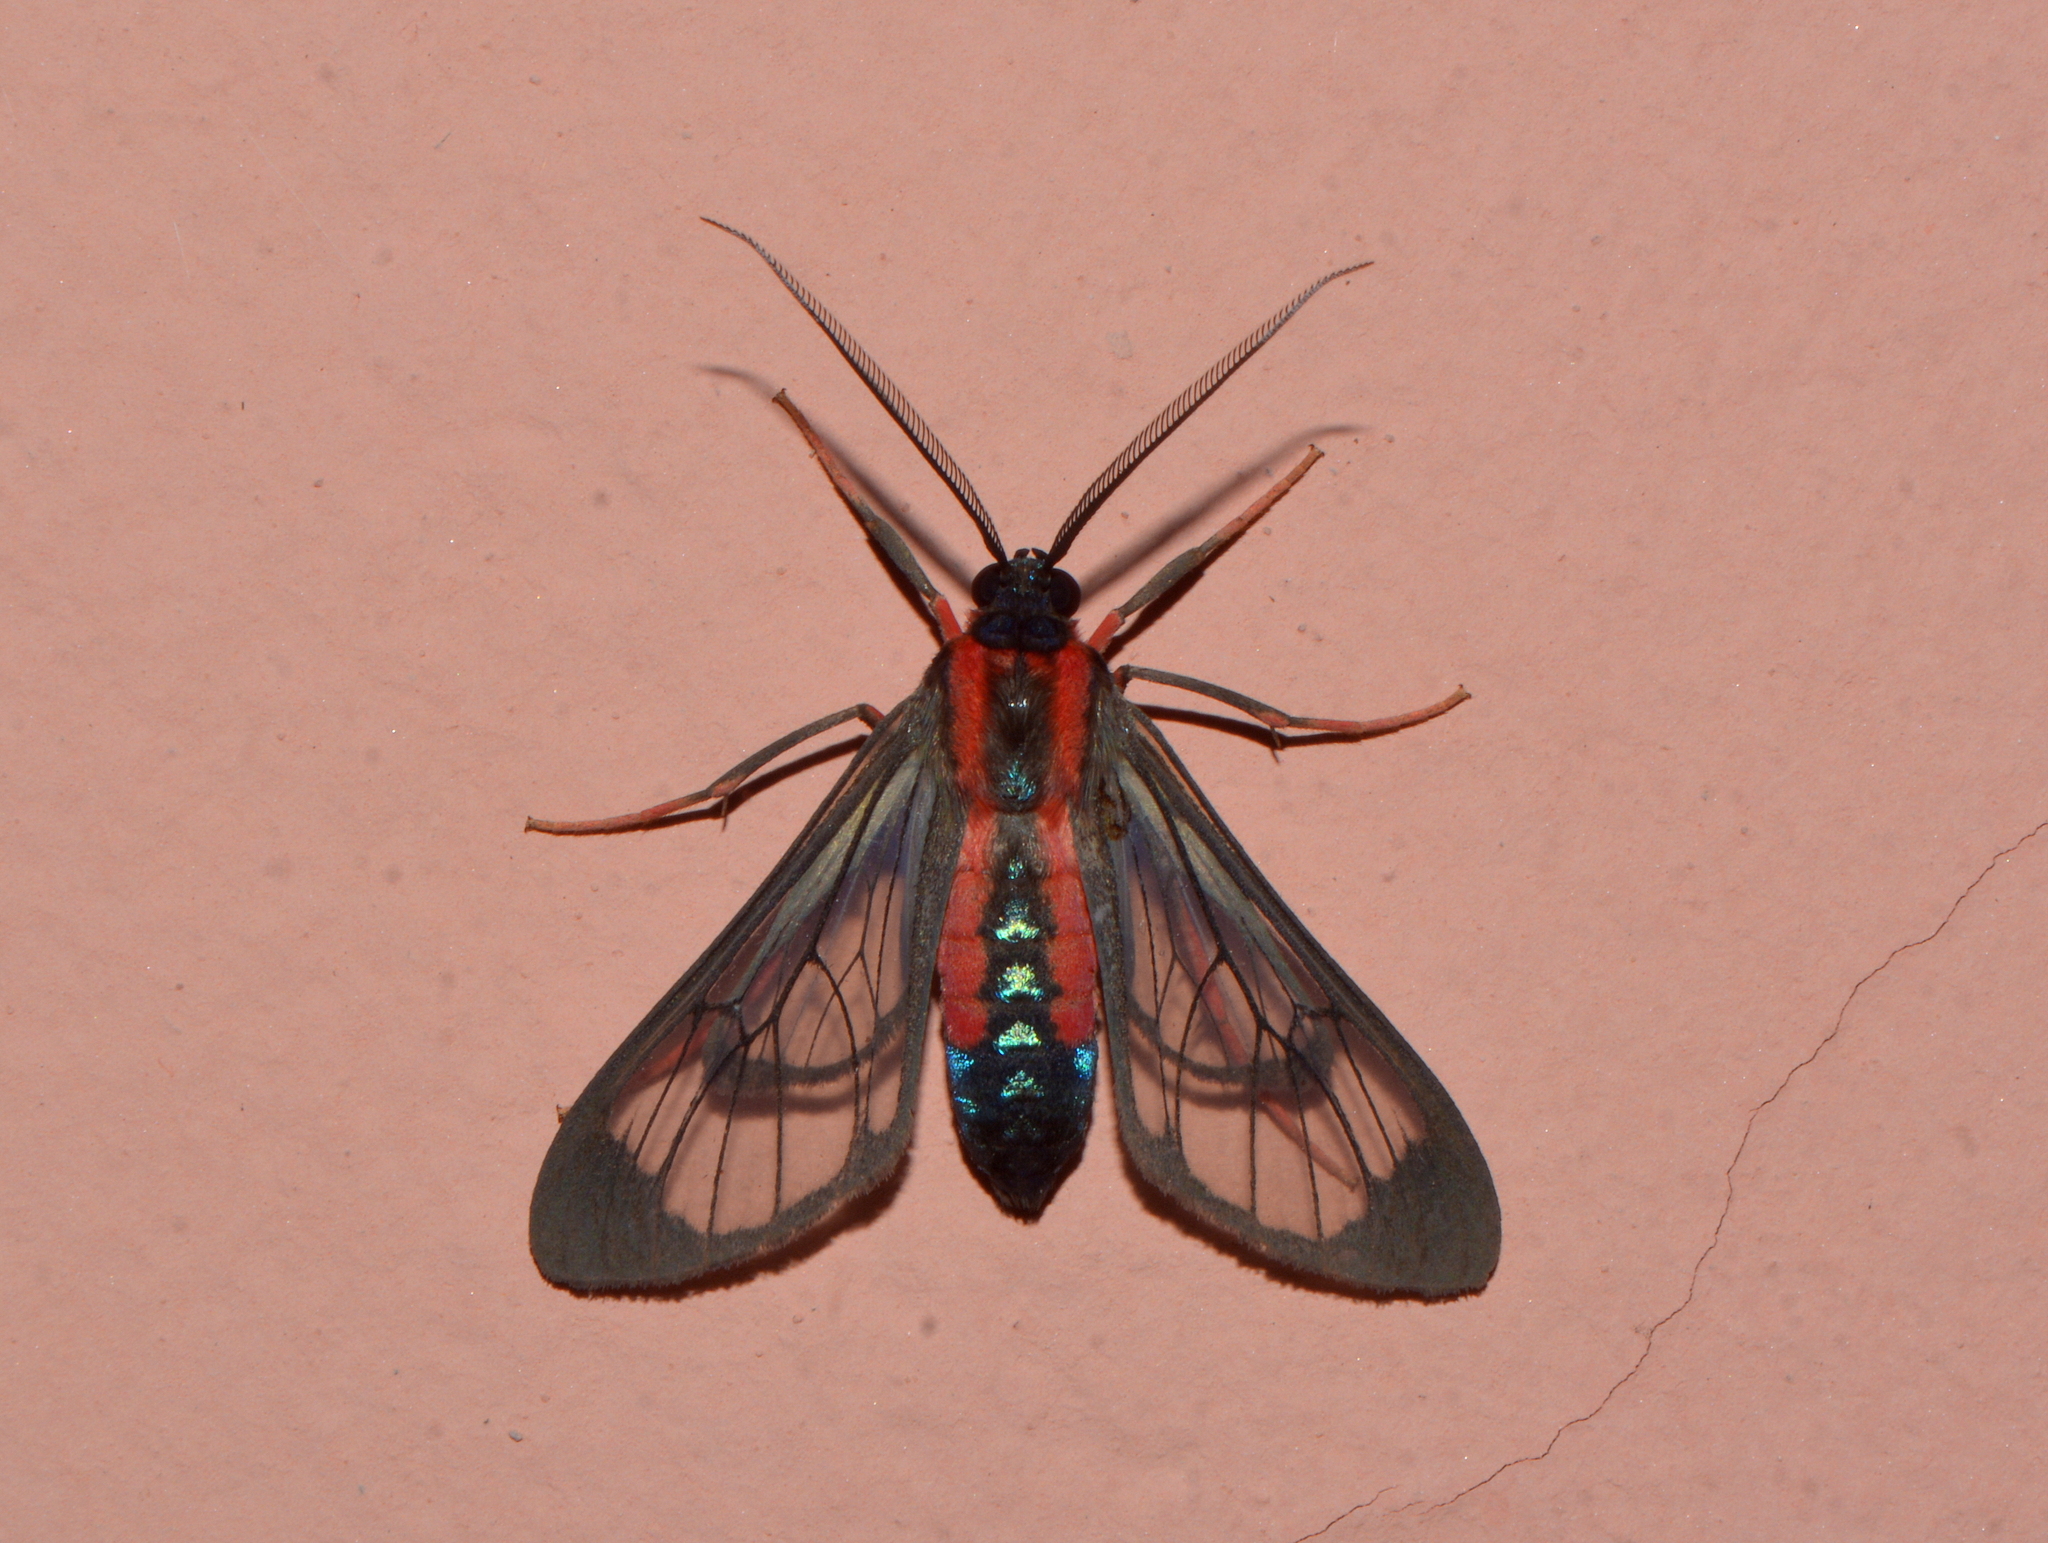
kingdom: Animalia
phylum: Arthropoda
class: Insecta
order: Lepidoptera
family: Erebidae
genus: Cosmosoma
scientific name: Cosmosoma auge
